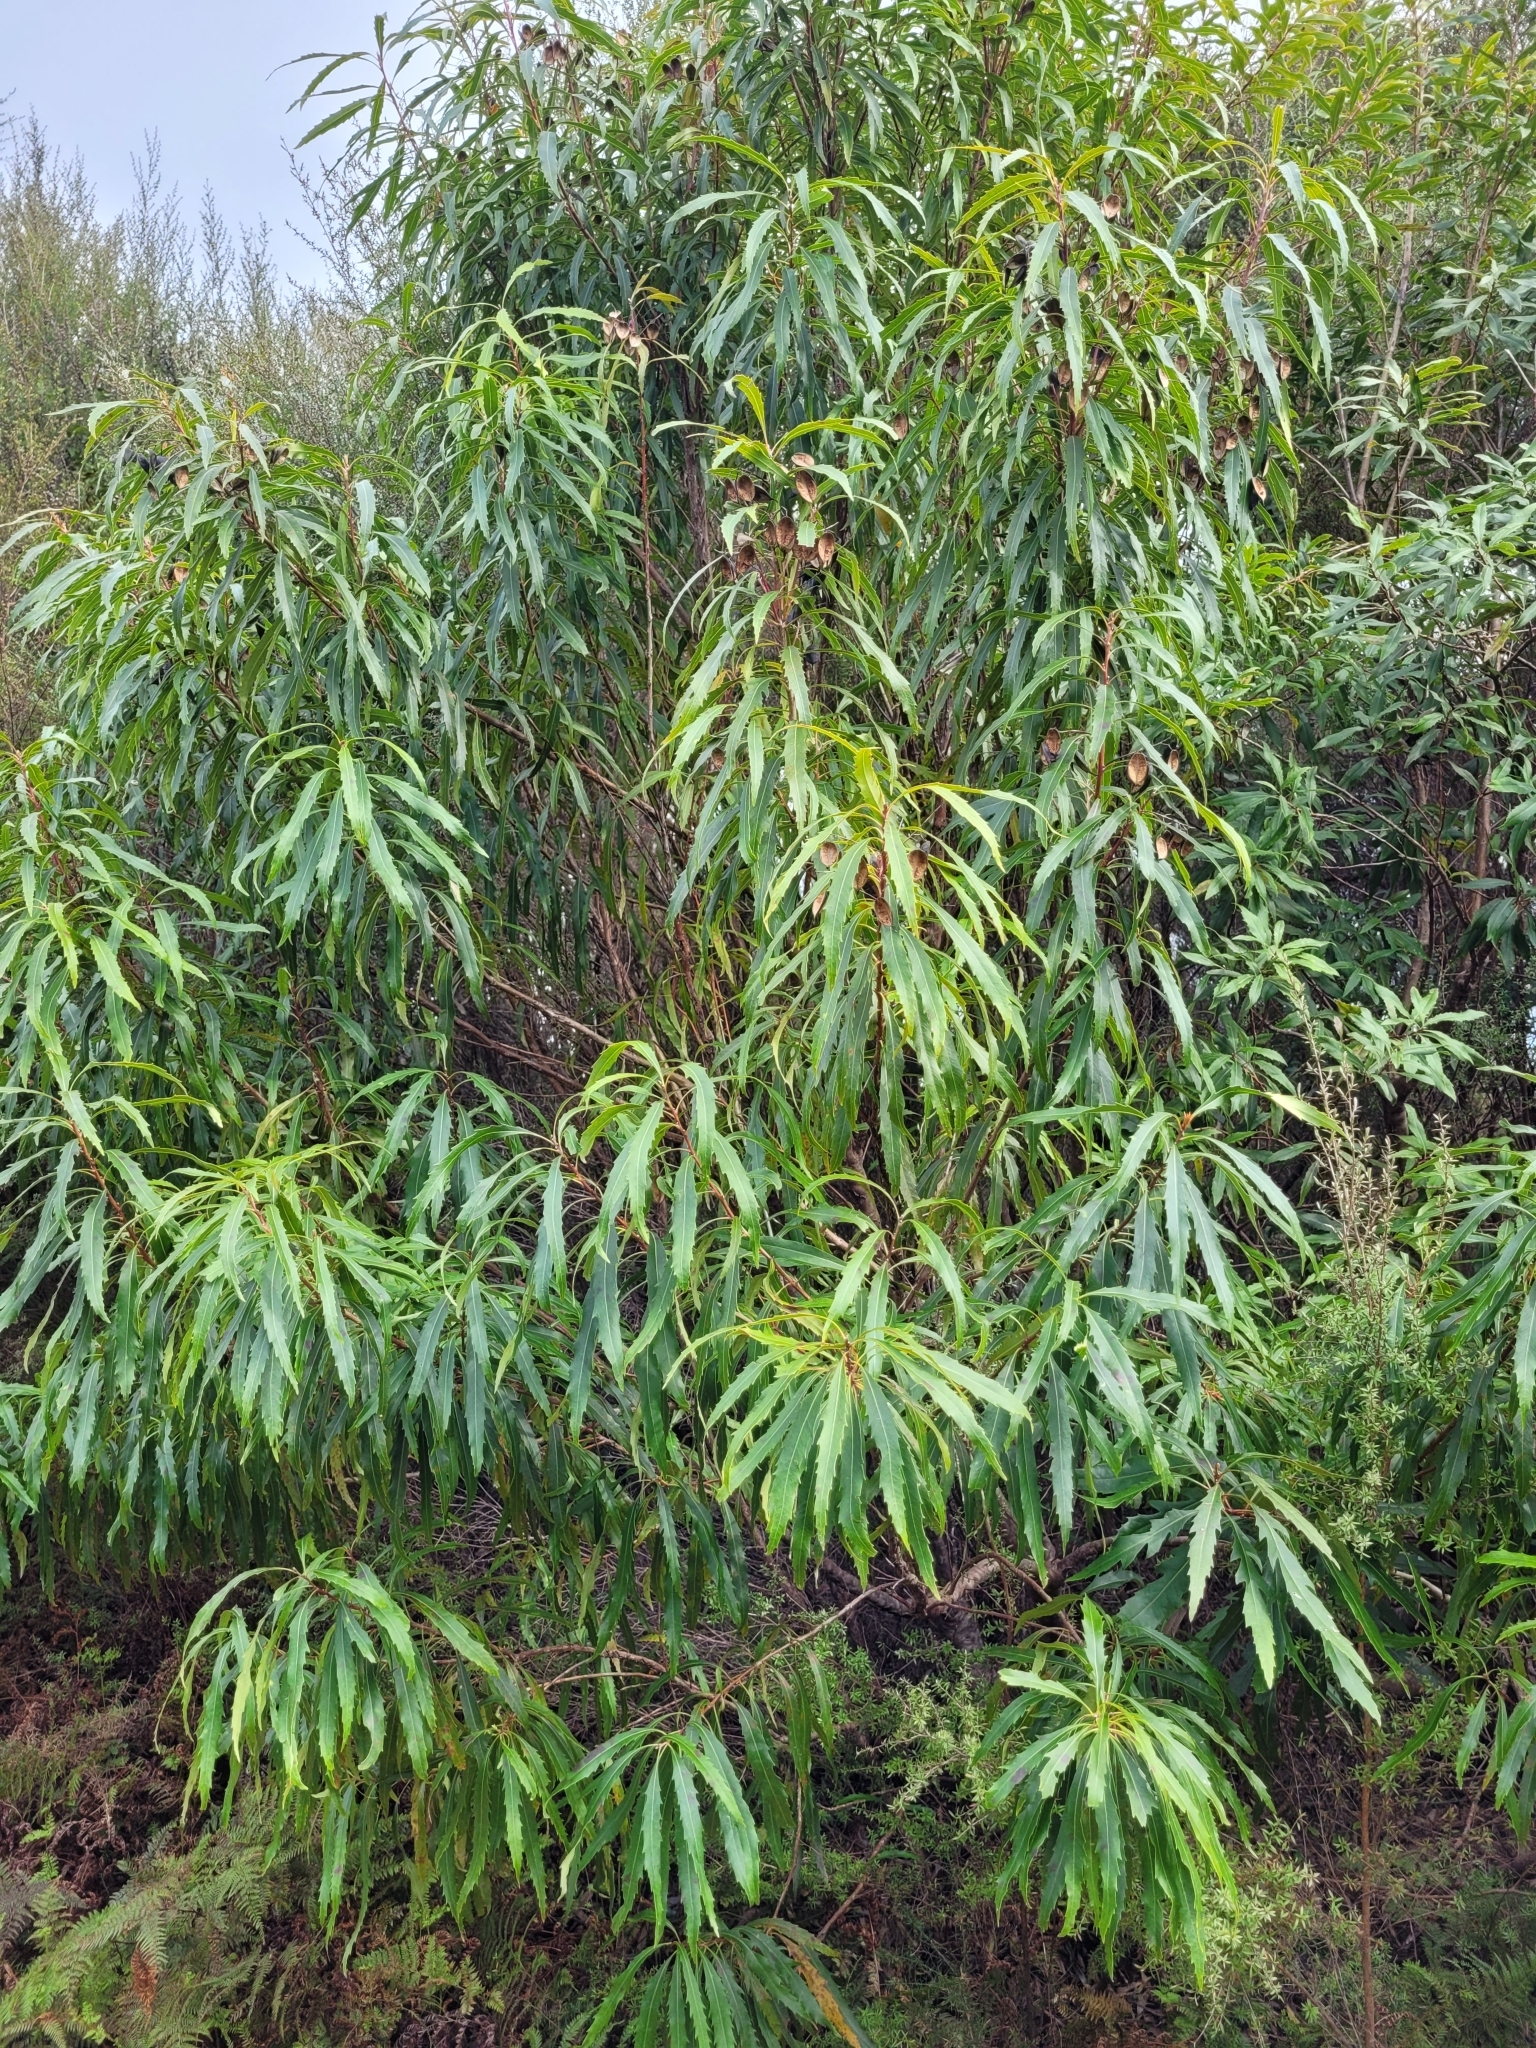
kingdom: Plantae
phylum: Tracheophyta
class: Magnoliopsida
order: Proteales
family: Proteaceae
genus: Lomatia
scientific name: Lomatia fraseri
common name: Forest lomatia
